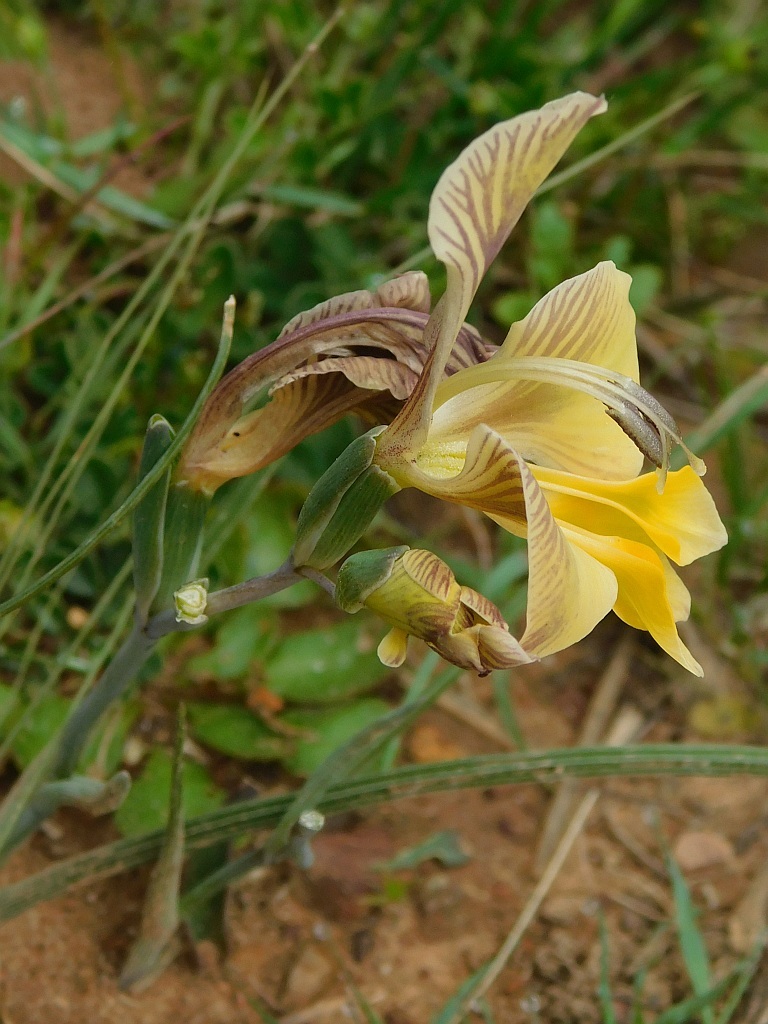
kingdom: Plantae
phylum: Tracheophyta
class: Liliopsida
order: Asparagales
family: Iridaceae
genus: Gladiolus
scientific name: Gladiolus virescens
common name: Yellow kalkoentjie
